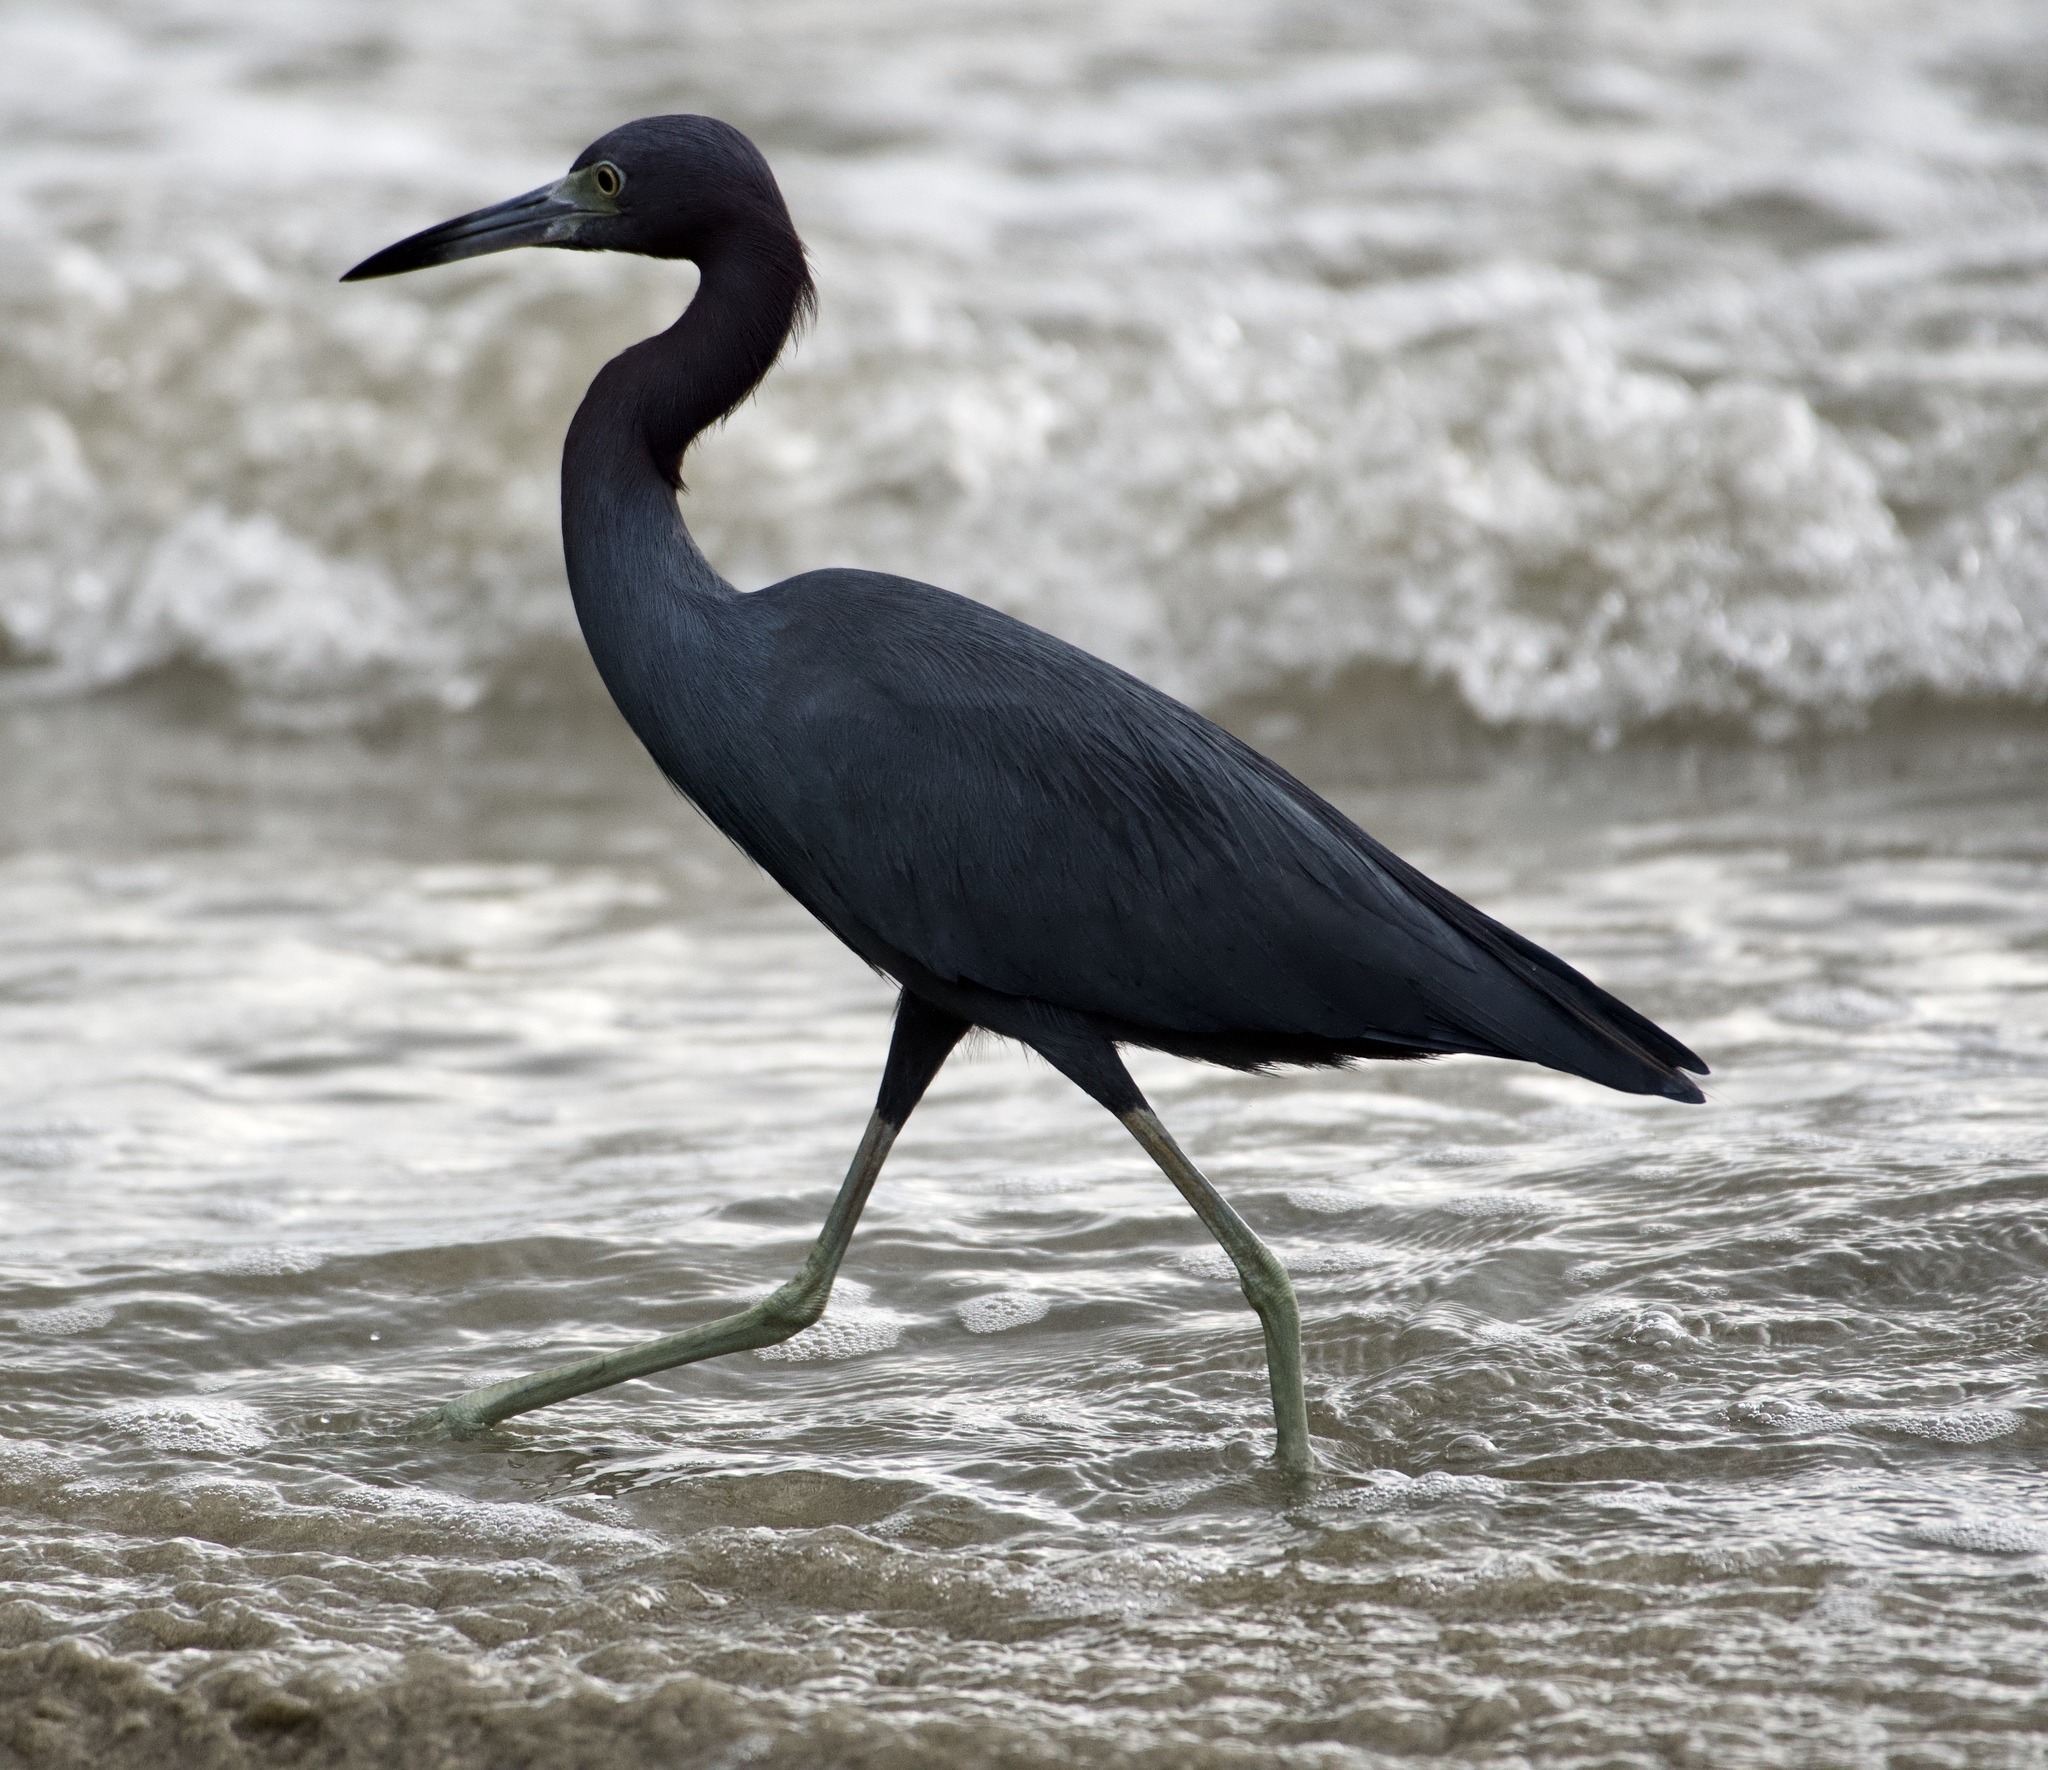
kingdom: Animalia
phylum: Chordata
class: Aves
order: Pelecaniformes
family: Ardeidae
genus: Egretta
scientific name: Egretta caerulea
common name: Little blue heron
